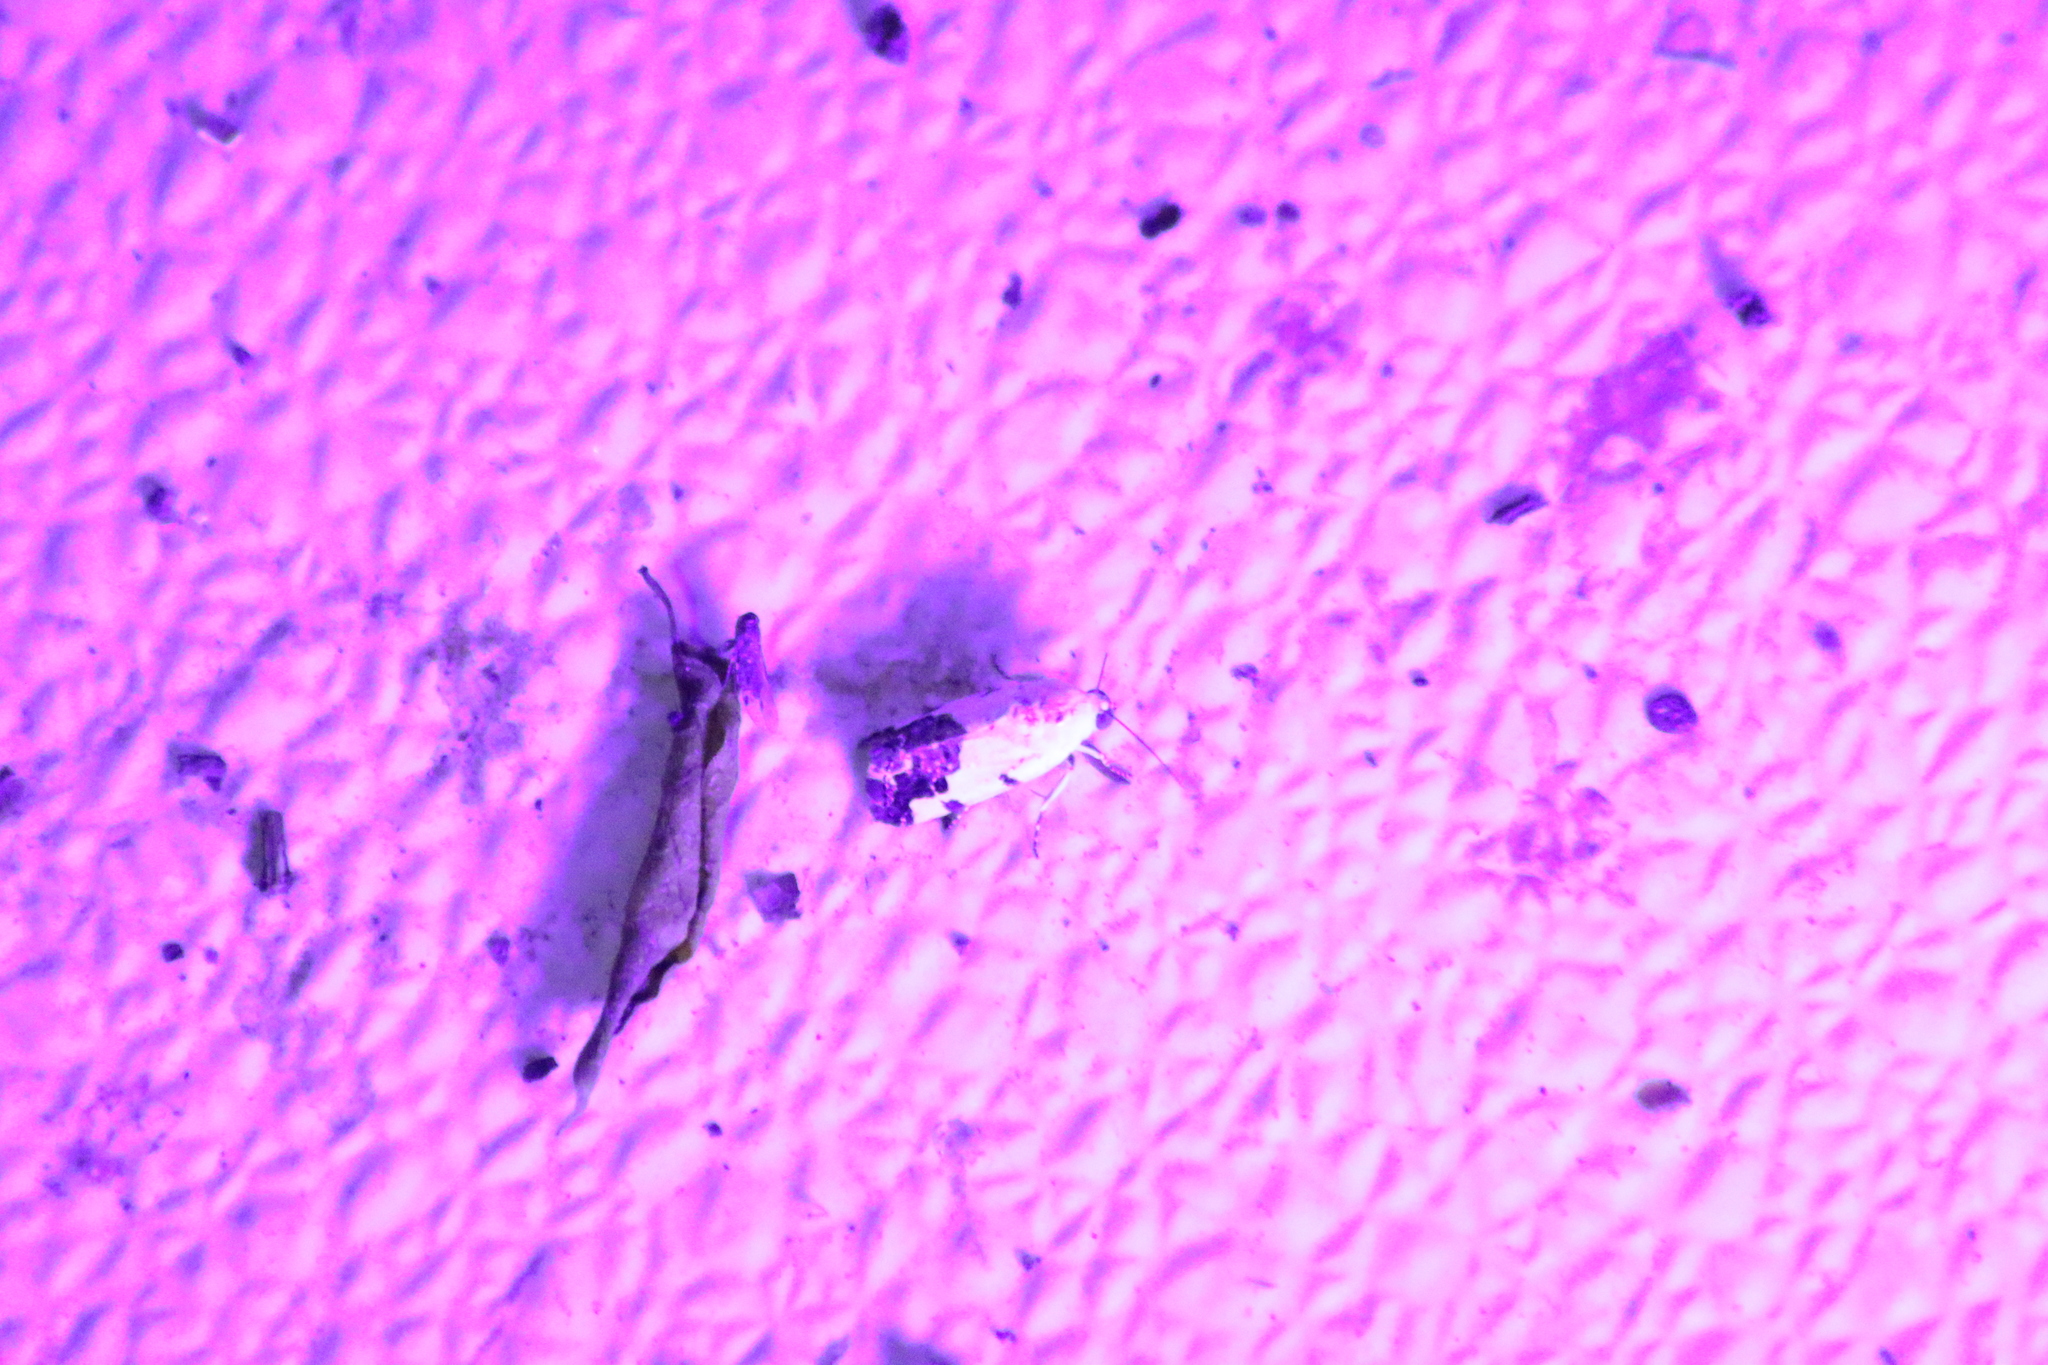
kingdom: Animalia
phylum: Arthropoda
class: Insecta
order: Lepidoptera
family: Noctuidae
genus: Acontia
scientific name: Acontia quadriplaga
